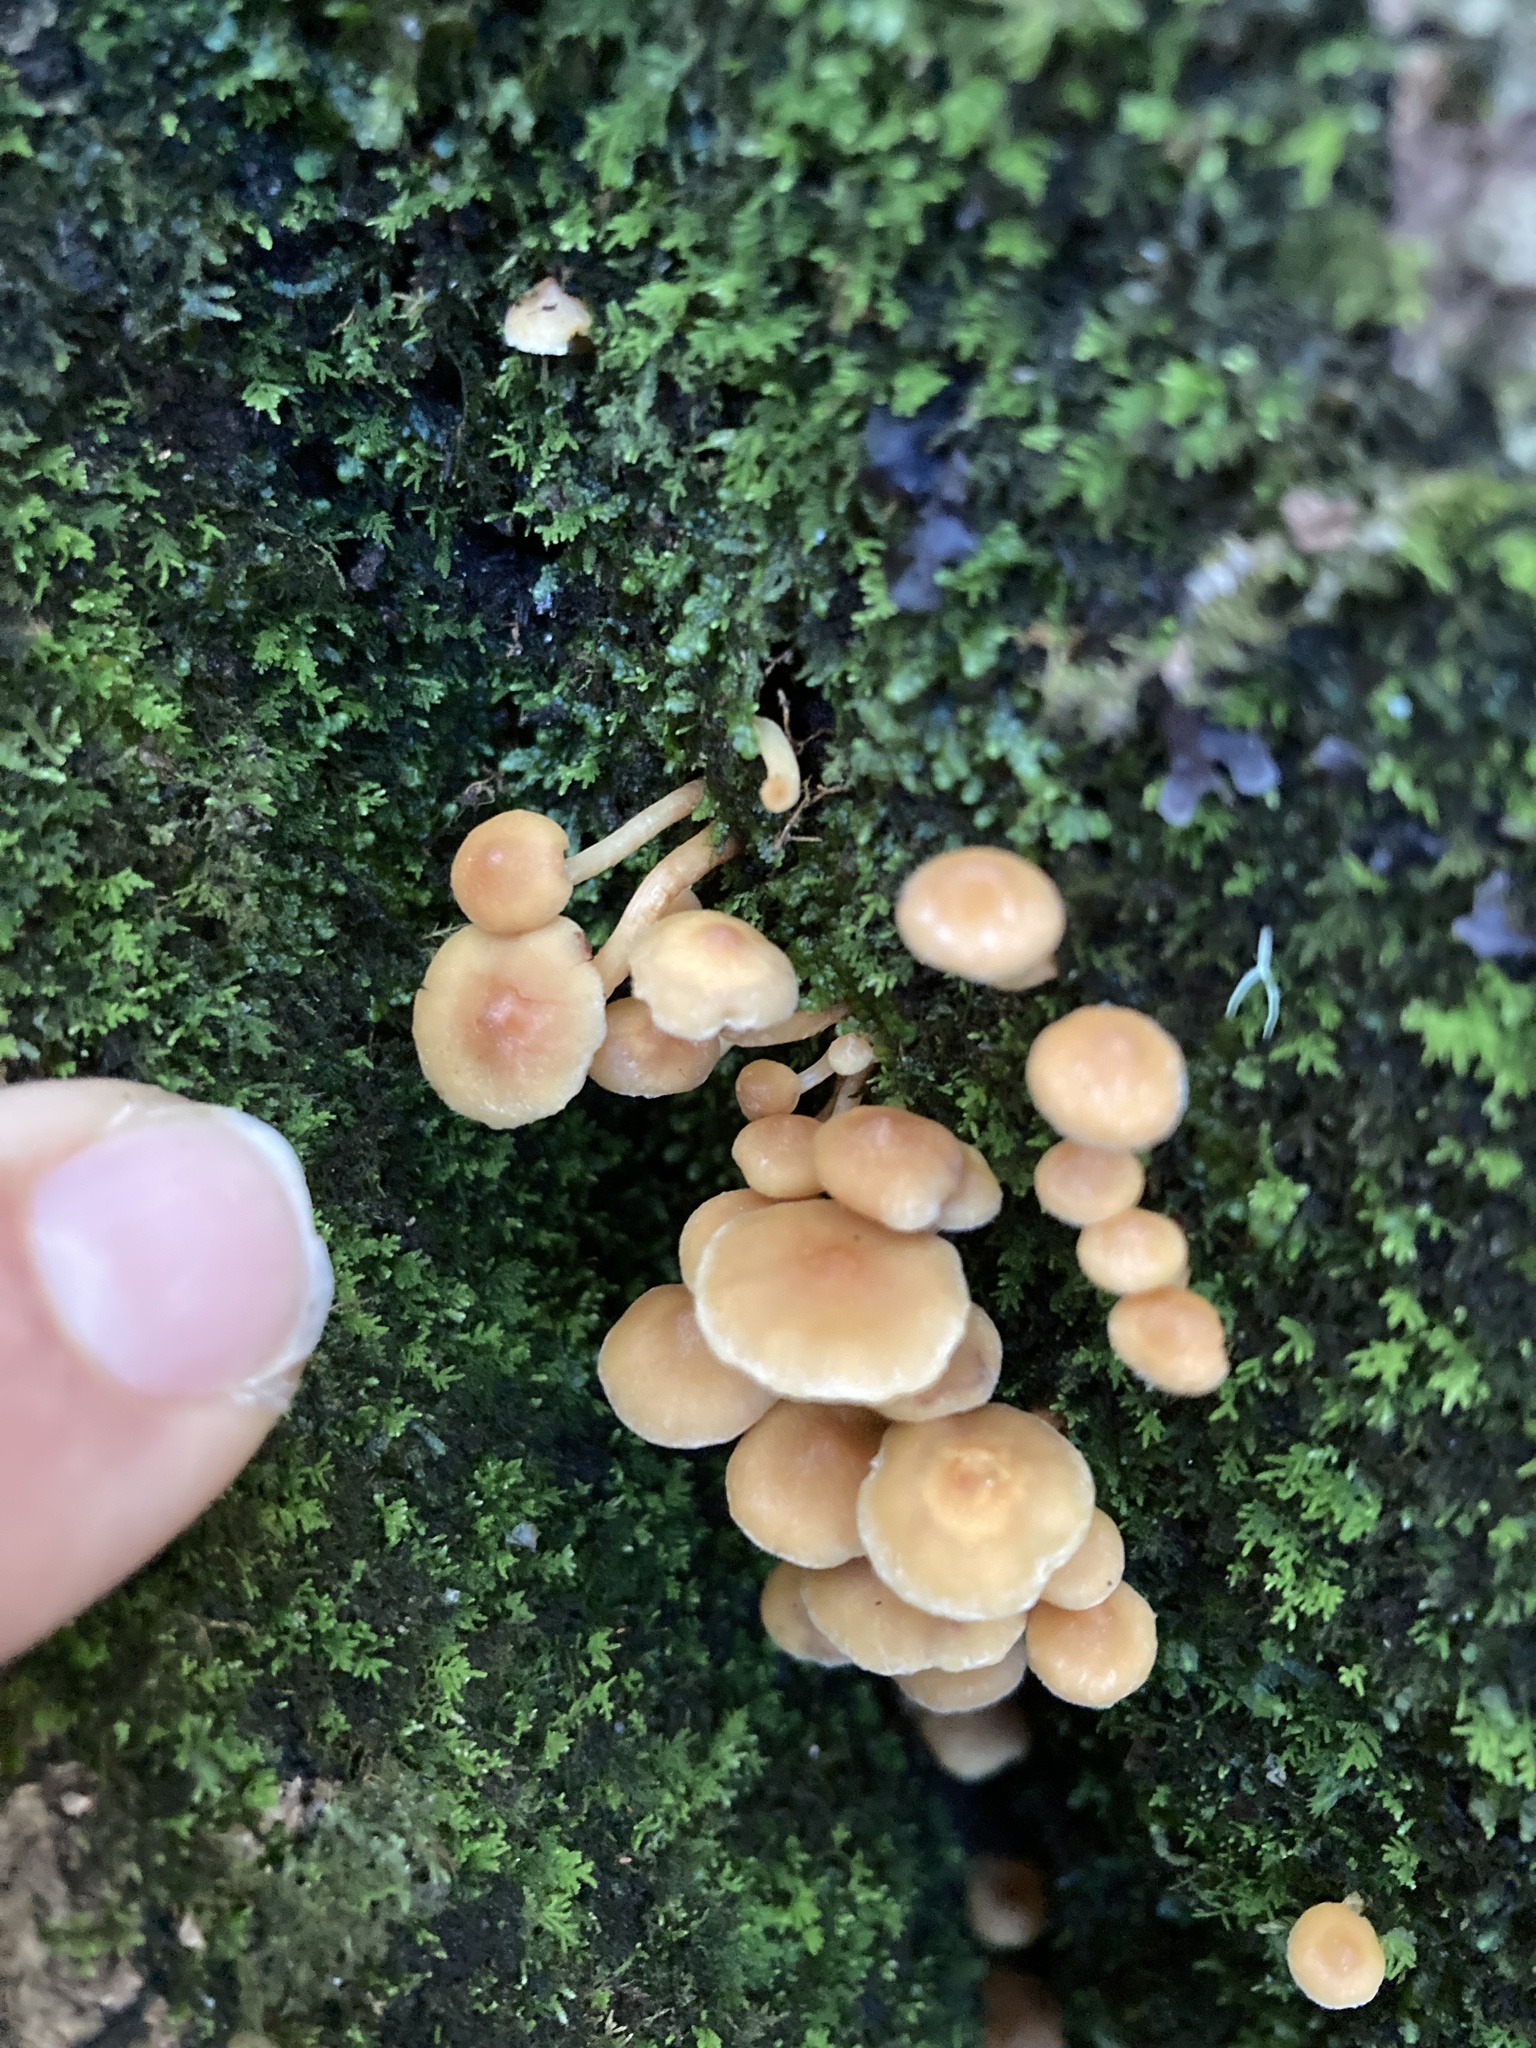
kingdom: Fungi
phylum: Basidiomycota
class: Agaricomycetes
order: Agaricales
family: Strophariaceae
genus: Hypholoma
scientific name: Hypholoma acutum
